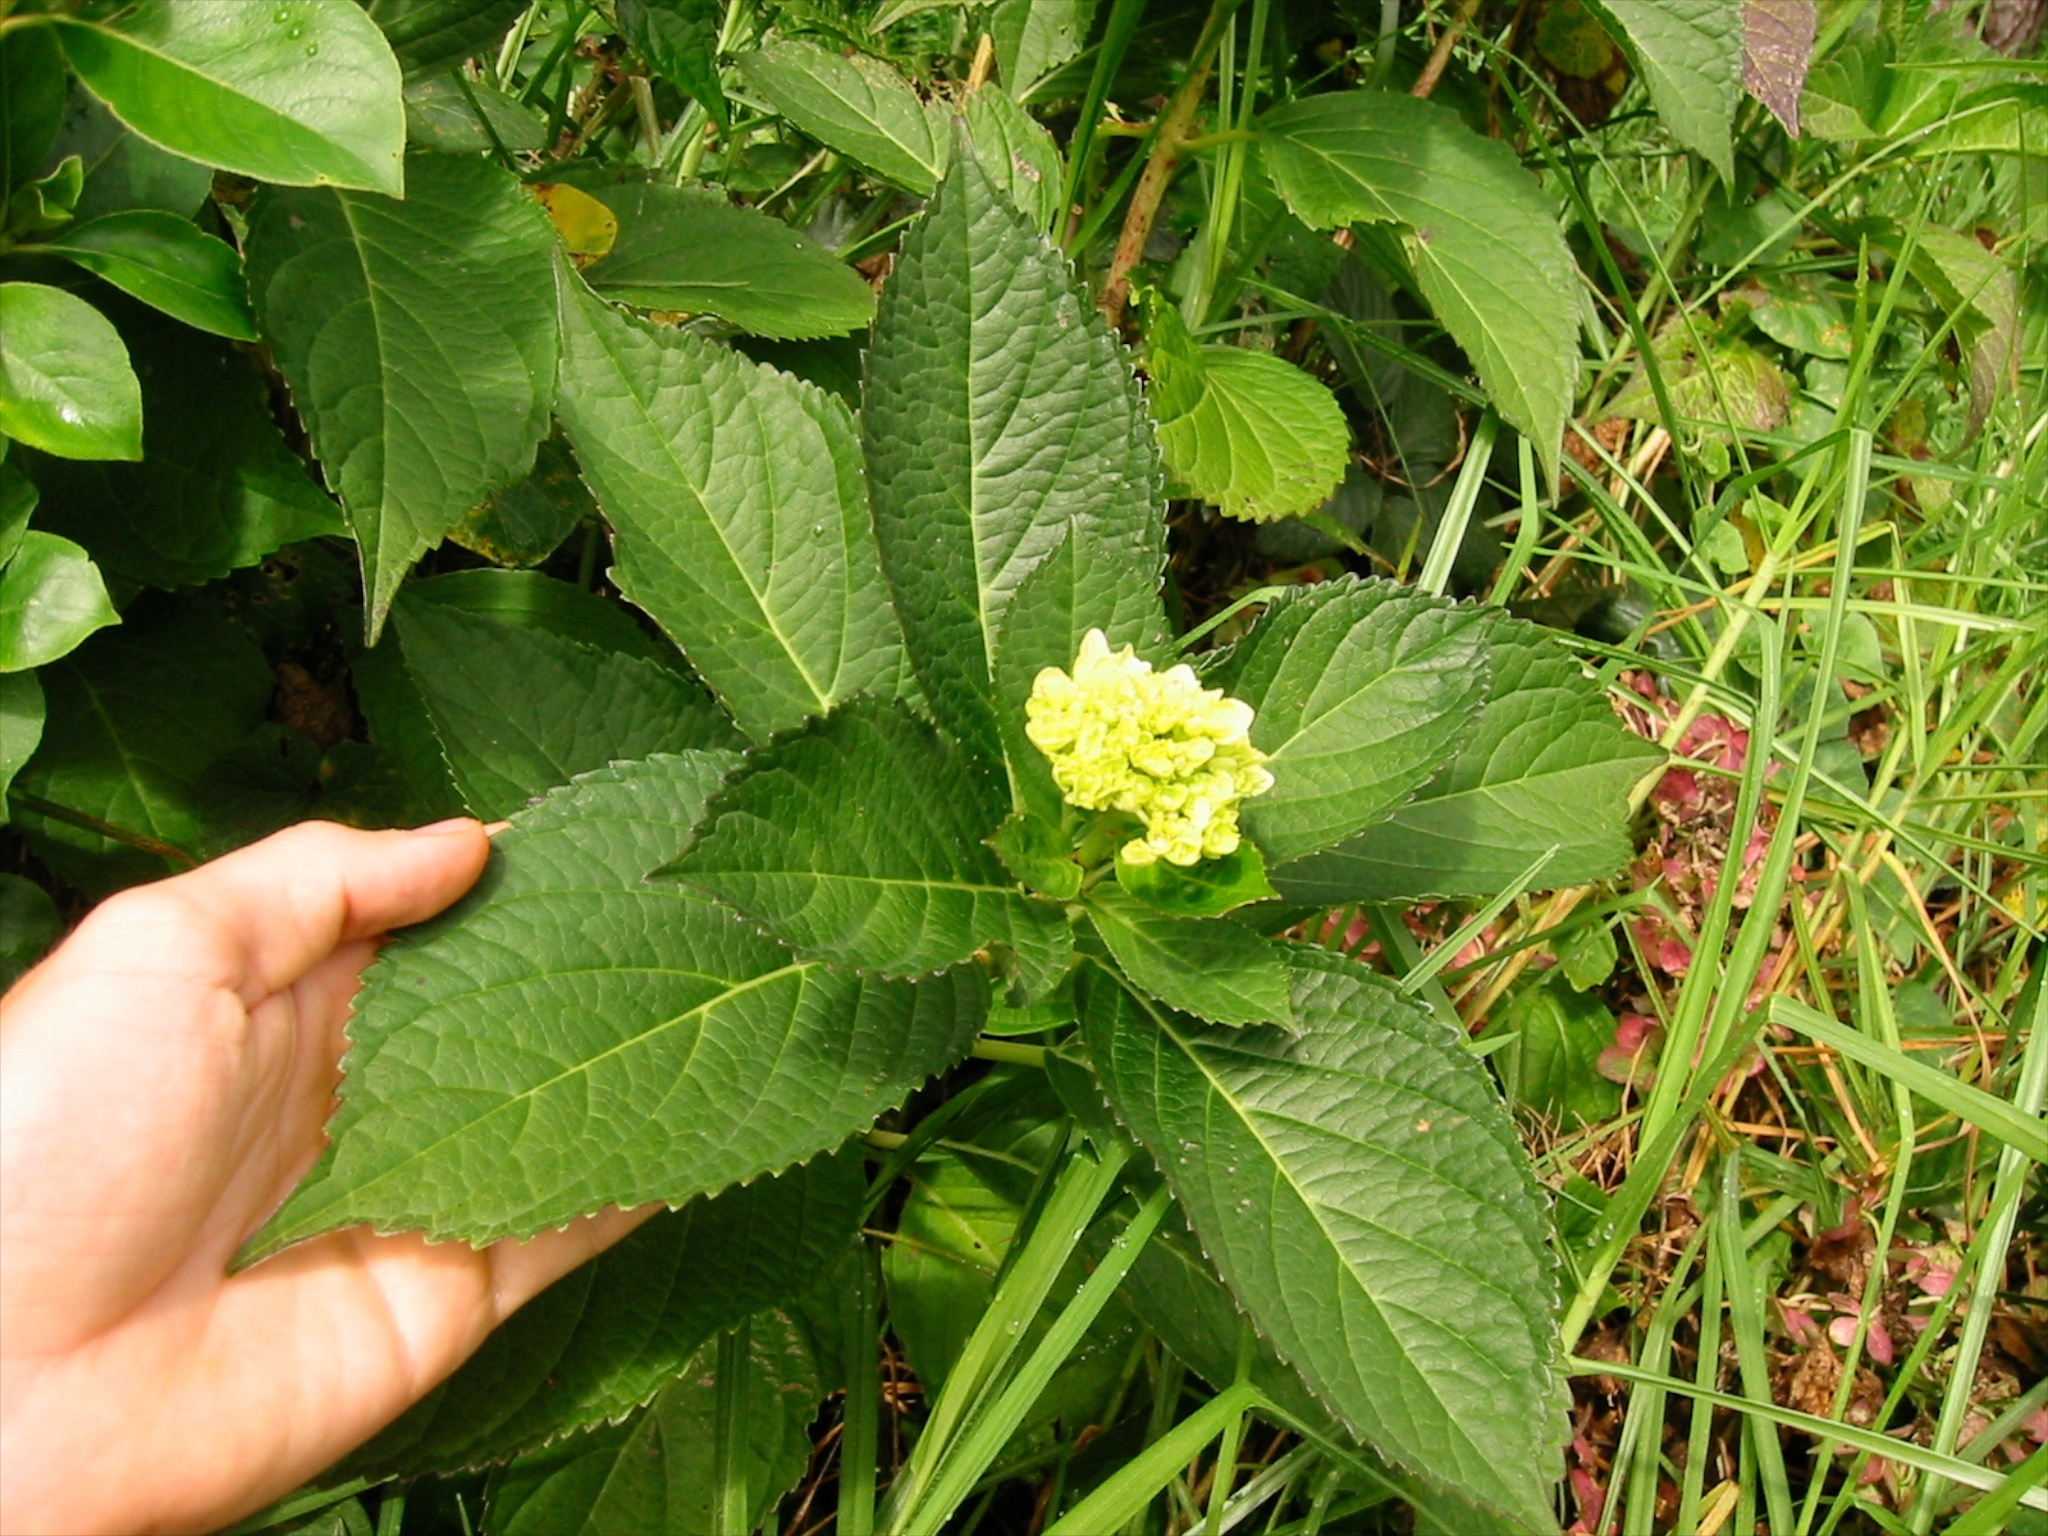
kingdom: Plantae
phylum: Tracheophyta
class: Magnoliopsida
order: Cornales
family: Hydrangeaceae
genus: Hydrangea
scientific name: Hydrangea macrophylla
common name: Hydrangea
